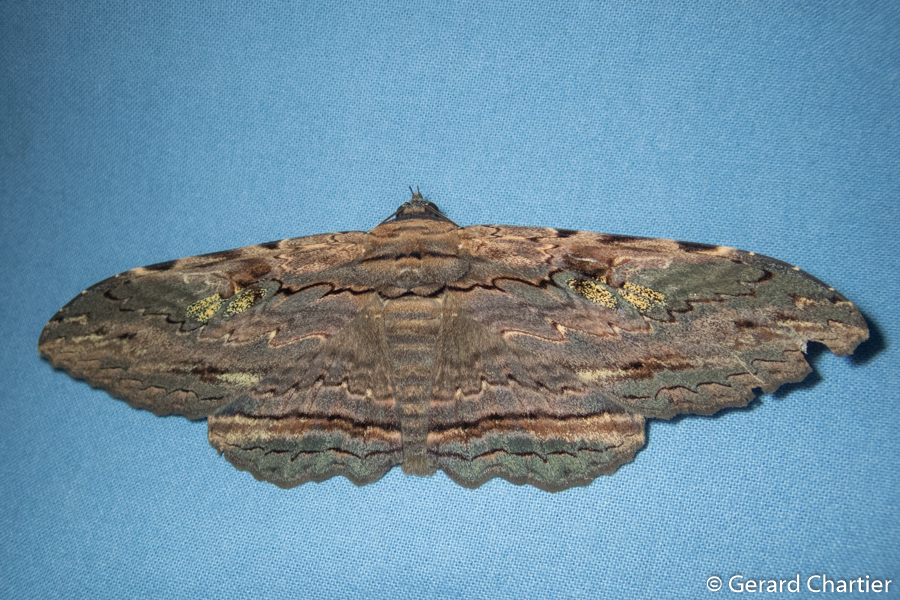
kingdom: Animalia
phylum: Arthropoda
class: Insecta
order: Lepidoptera
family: Erebidae
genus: Anisoneura
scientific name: Anisoneura aluco
